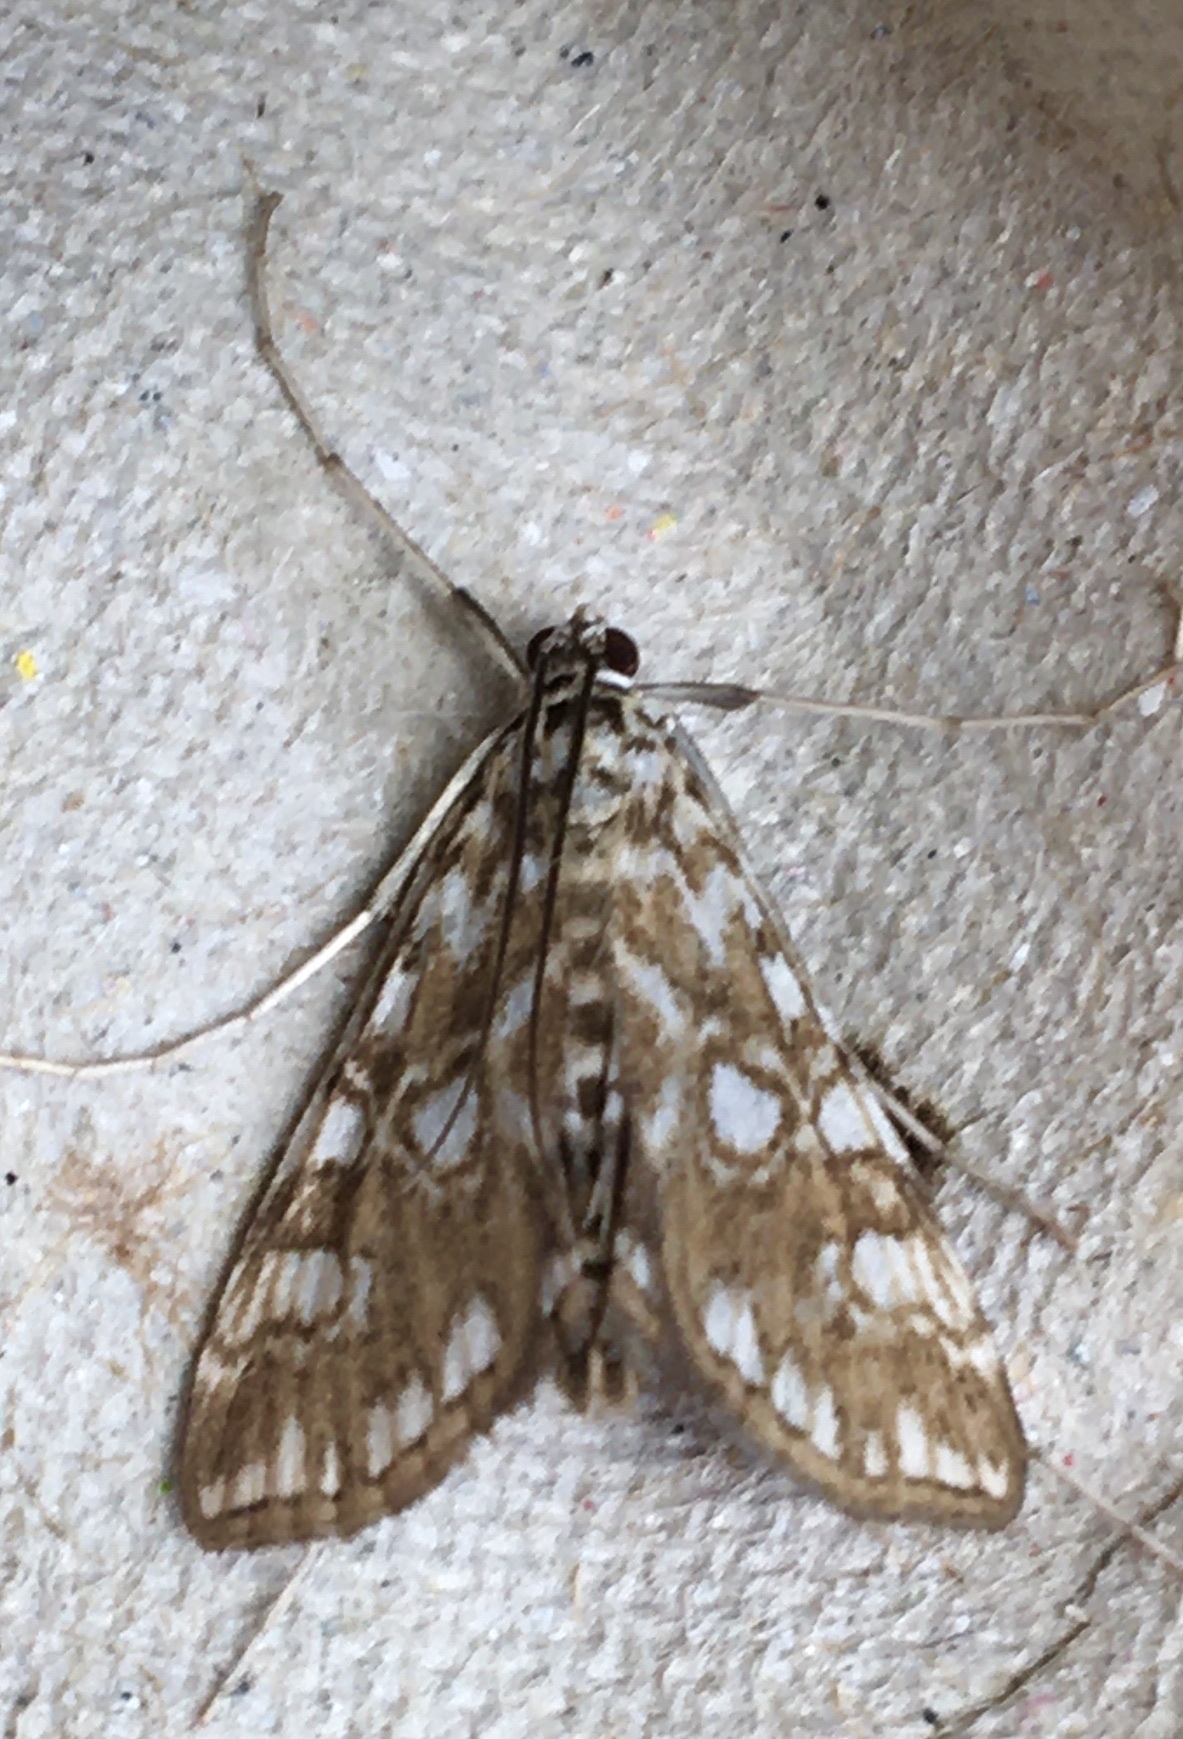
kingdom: Animalia
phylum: Arthropoda
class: Insecta
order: Lepidoptera
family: Crambidae
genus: Elophila
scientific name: Elophila nymphaeata
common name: Brown china-mark
